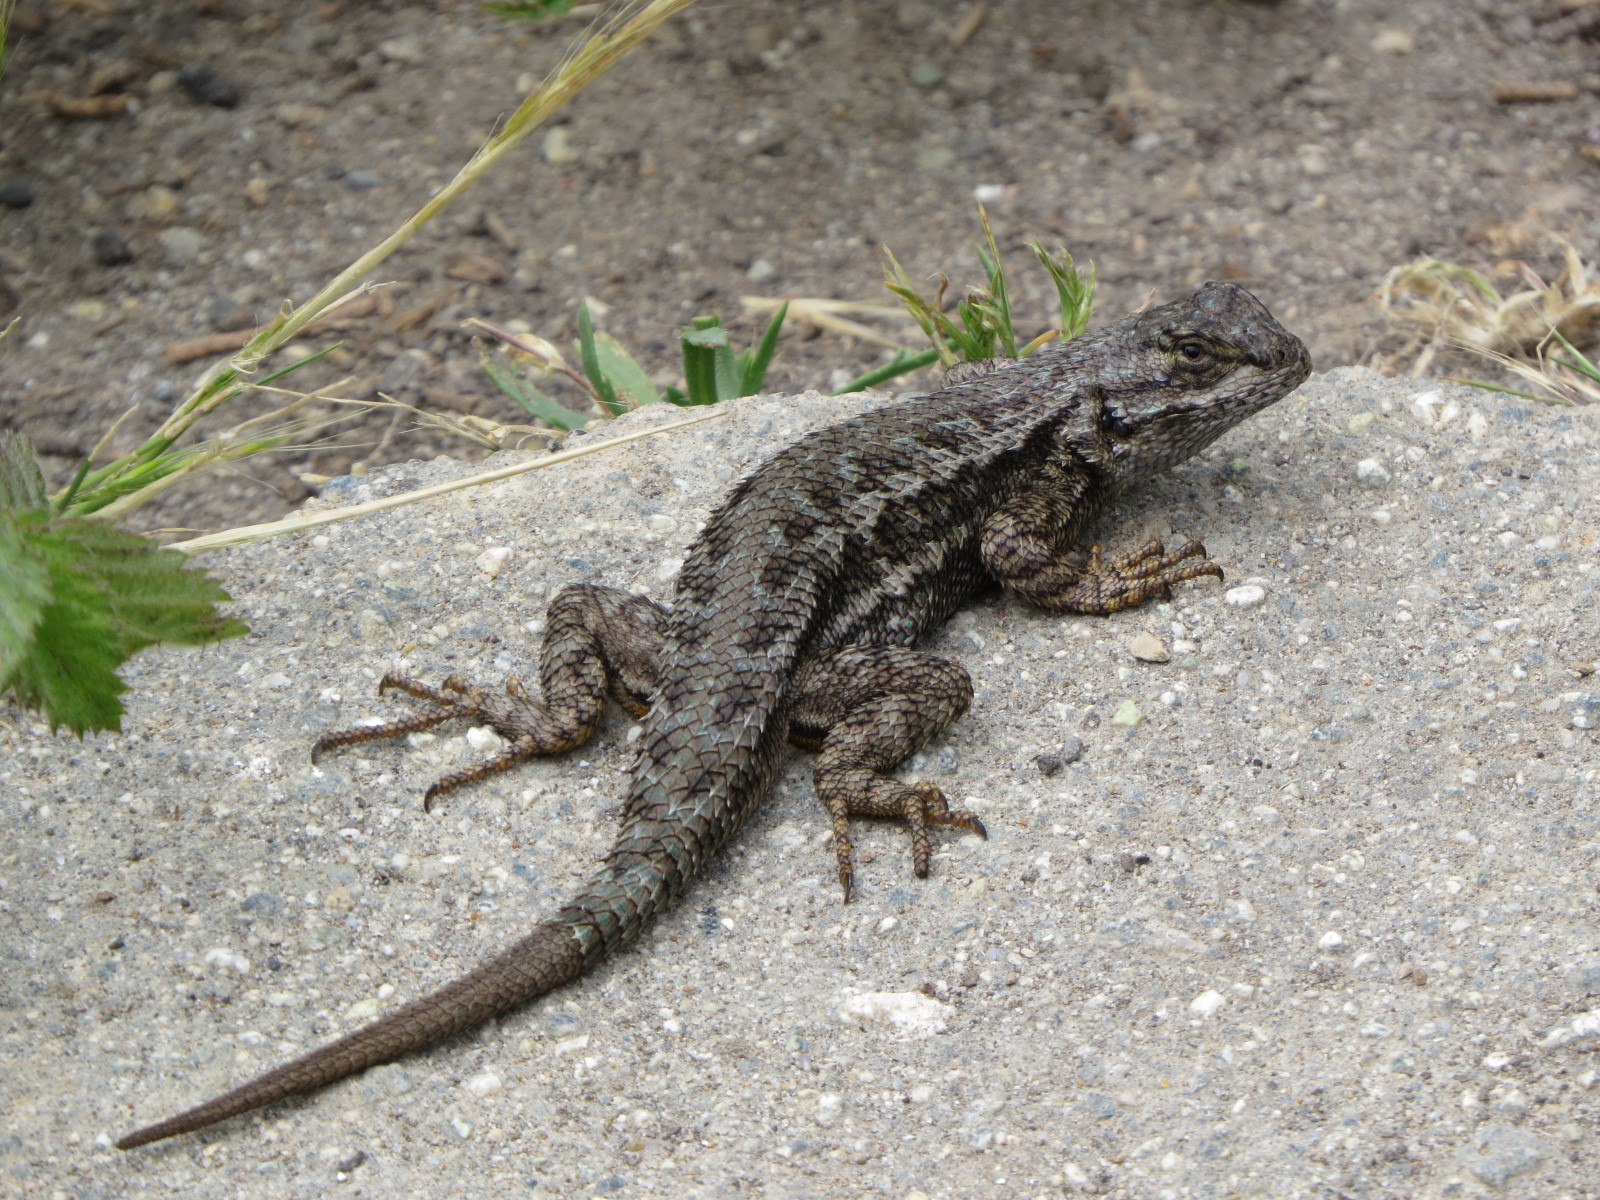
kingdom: Animalia
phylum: Chordata
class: Squamata
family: Phrynosomatidae
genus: Sceloporus
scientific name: Sceloporus occidentalis
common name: Western fence lizard
